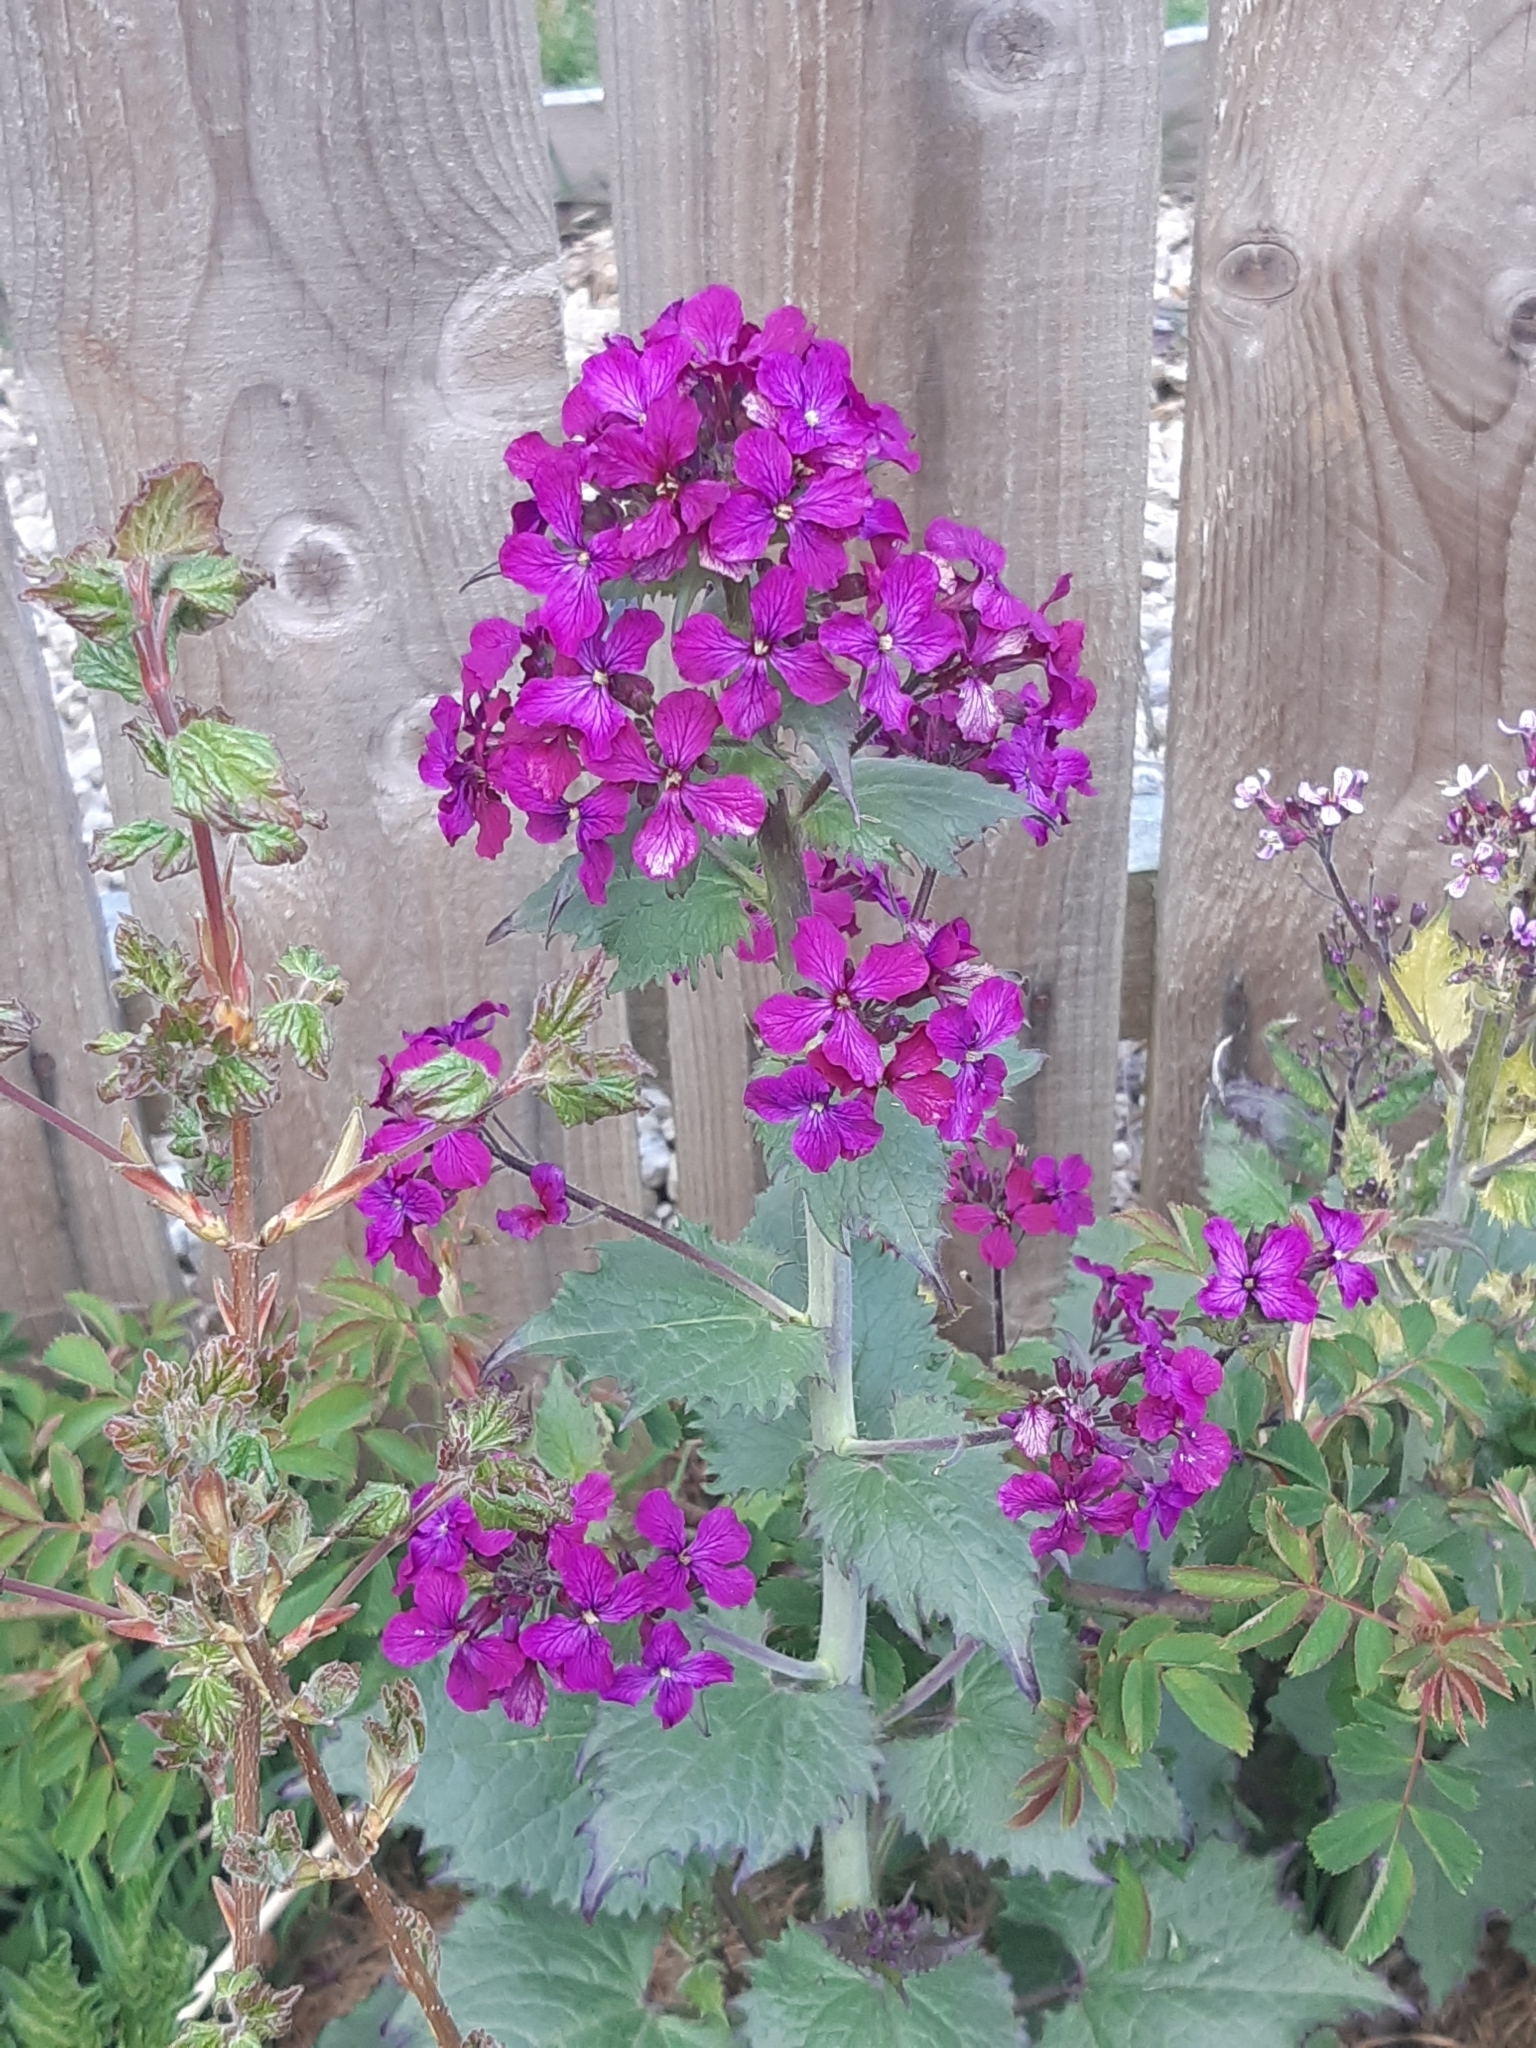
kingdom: Plantae
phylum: Tracheophyta
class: Magnoliopsida
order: Brassicales
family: Brassicaceae
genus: Lunaria
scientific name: Lunaria annua
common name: Honesty
